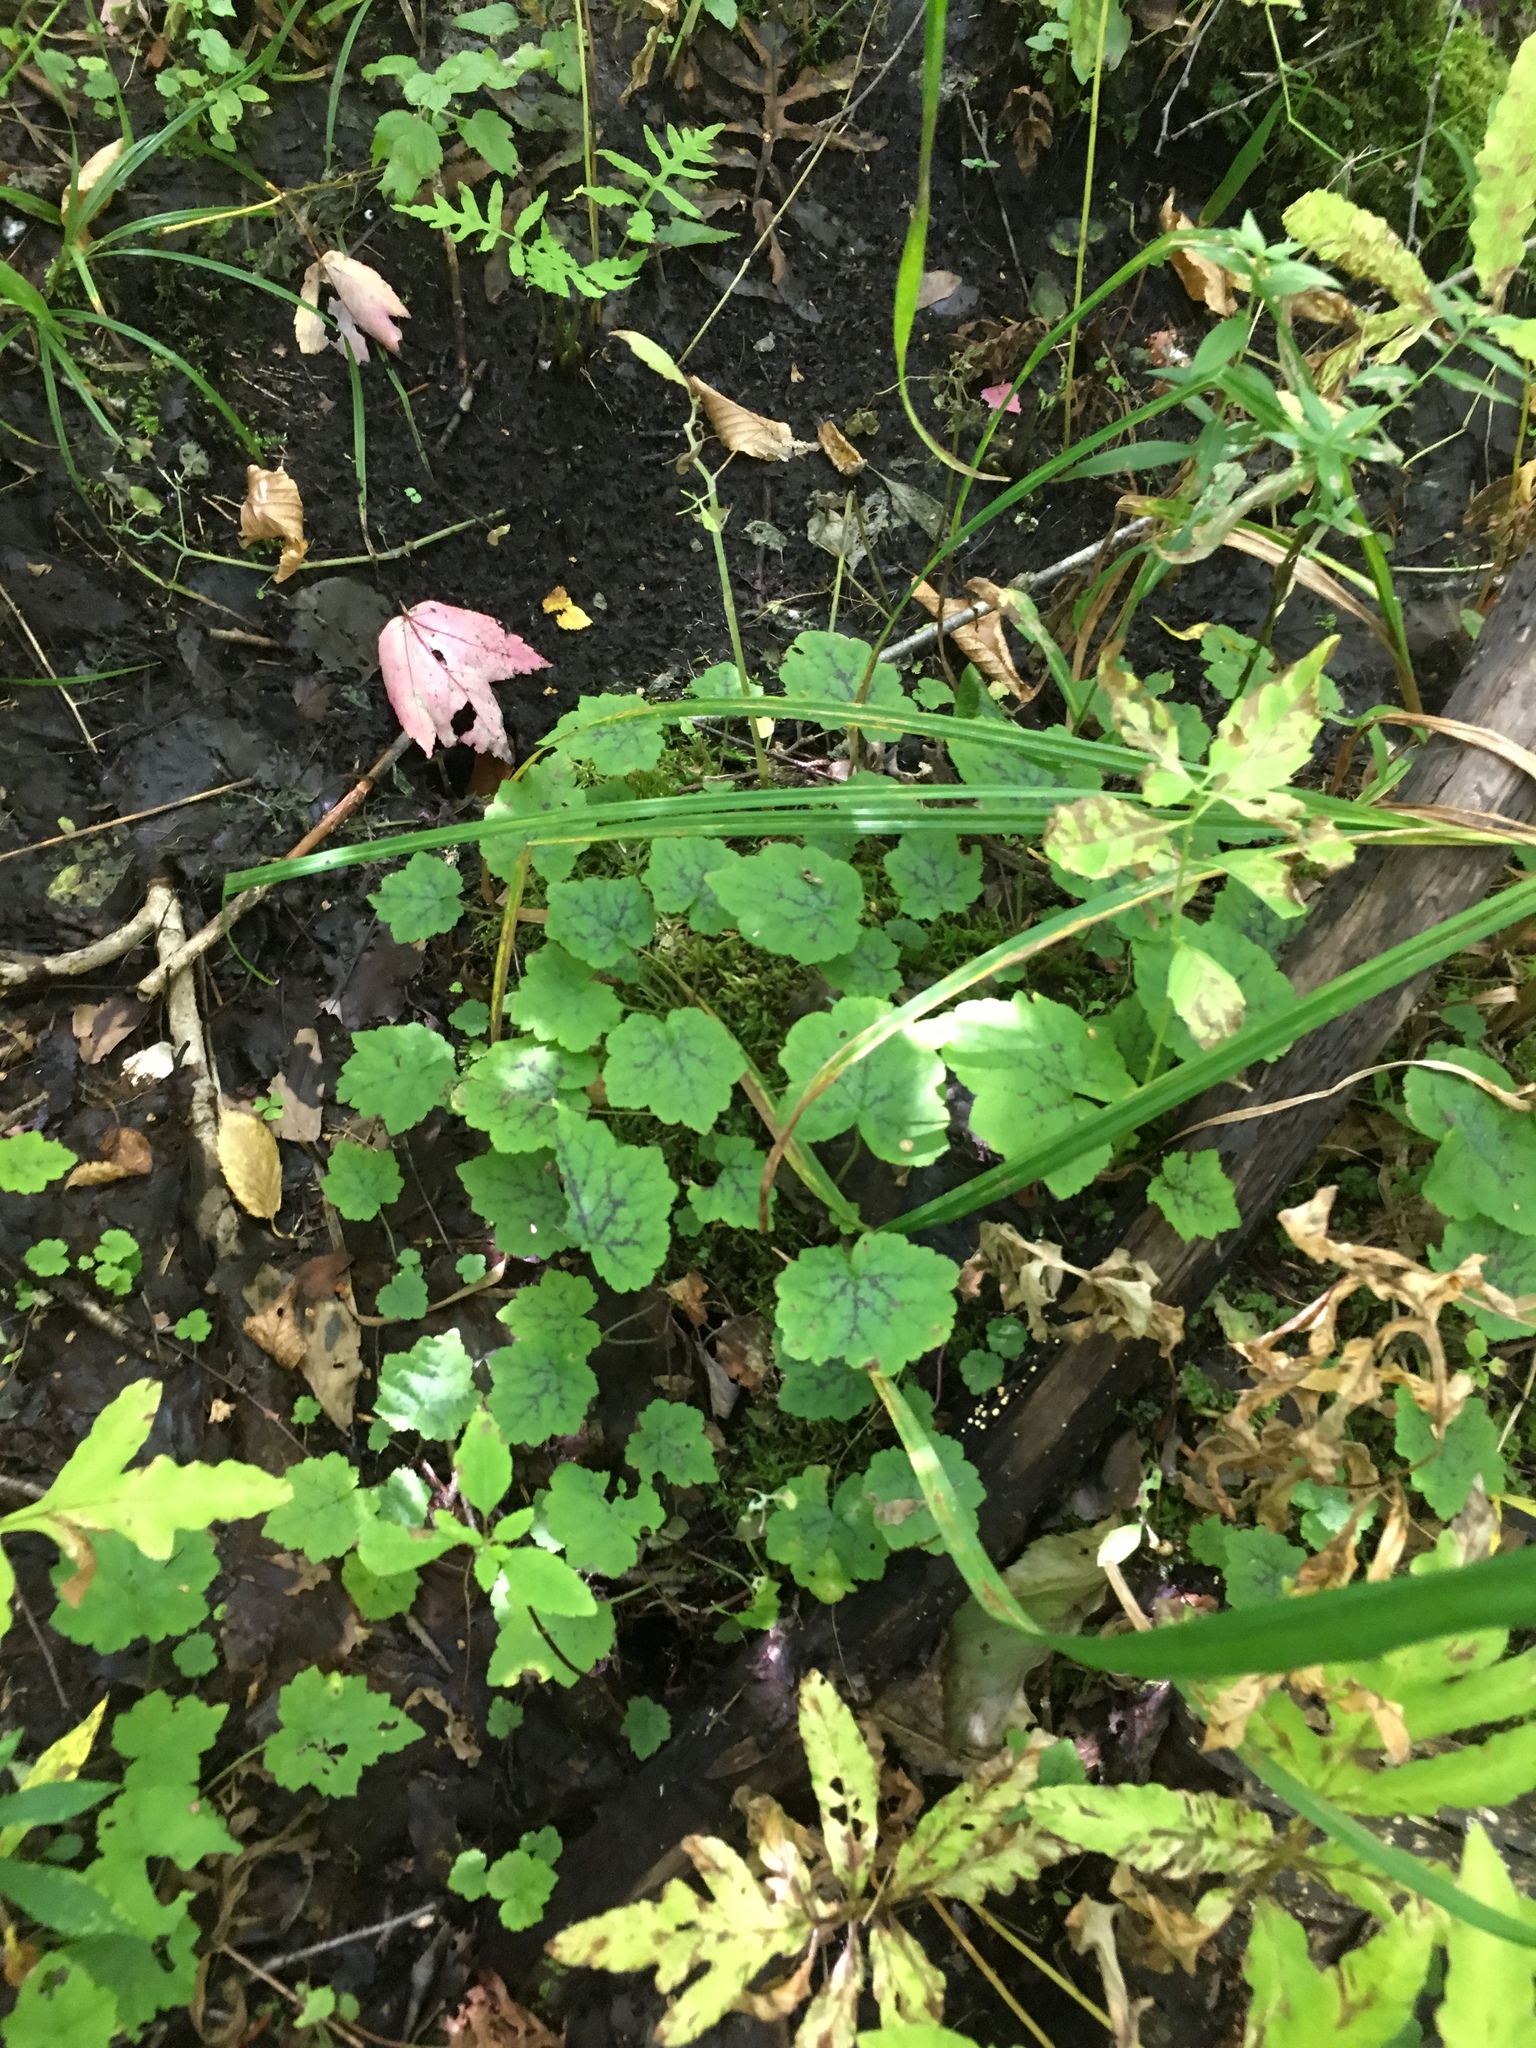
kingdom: Plantae
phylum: Tracheophyta
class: Magnoliopsida
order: Saxifragales
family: Saxifragaceae
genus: Tiarella
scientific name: Tiarella stolonifera
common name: Stoloniferous foamflower
